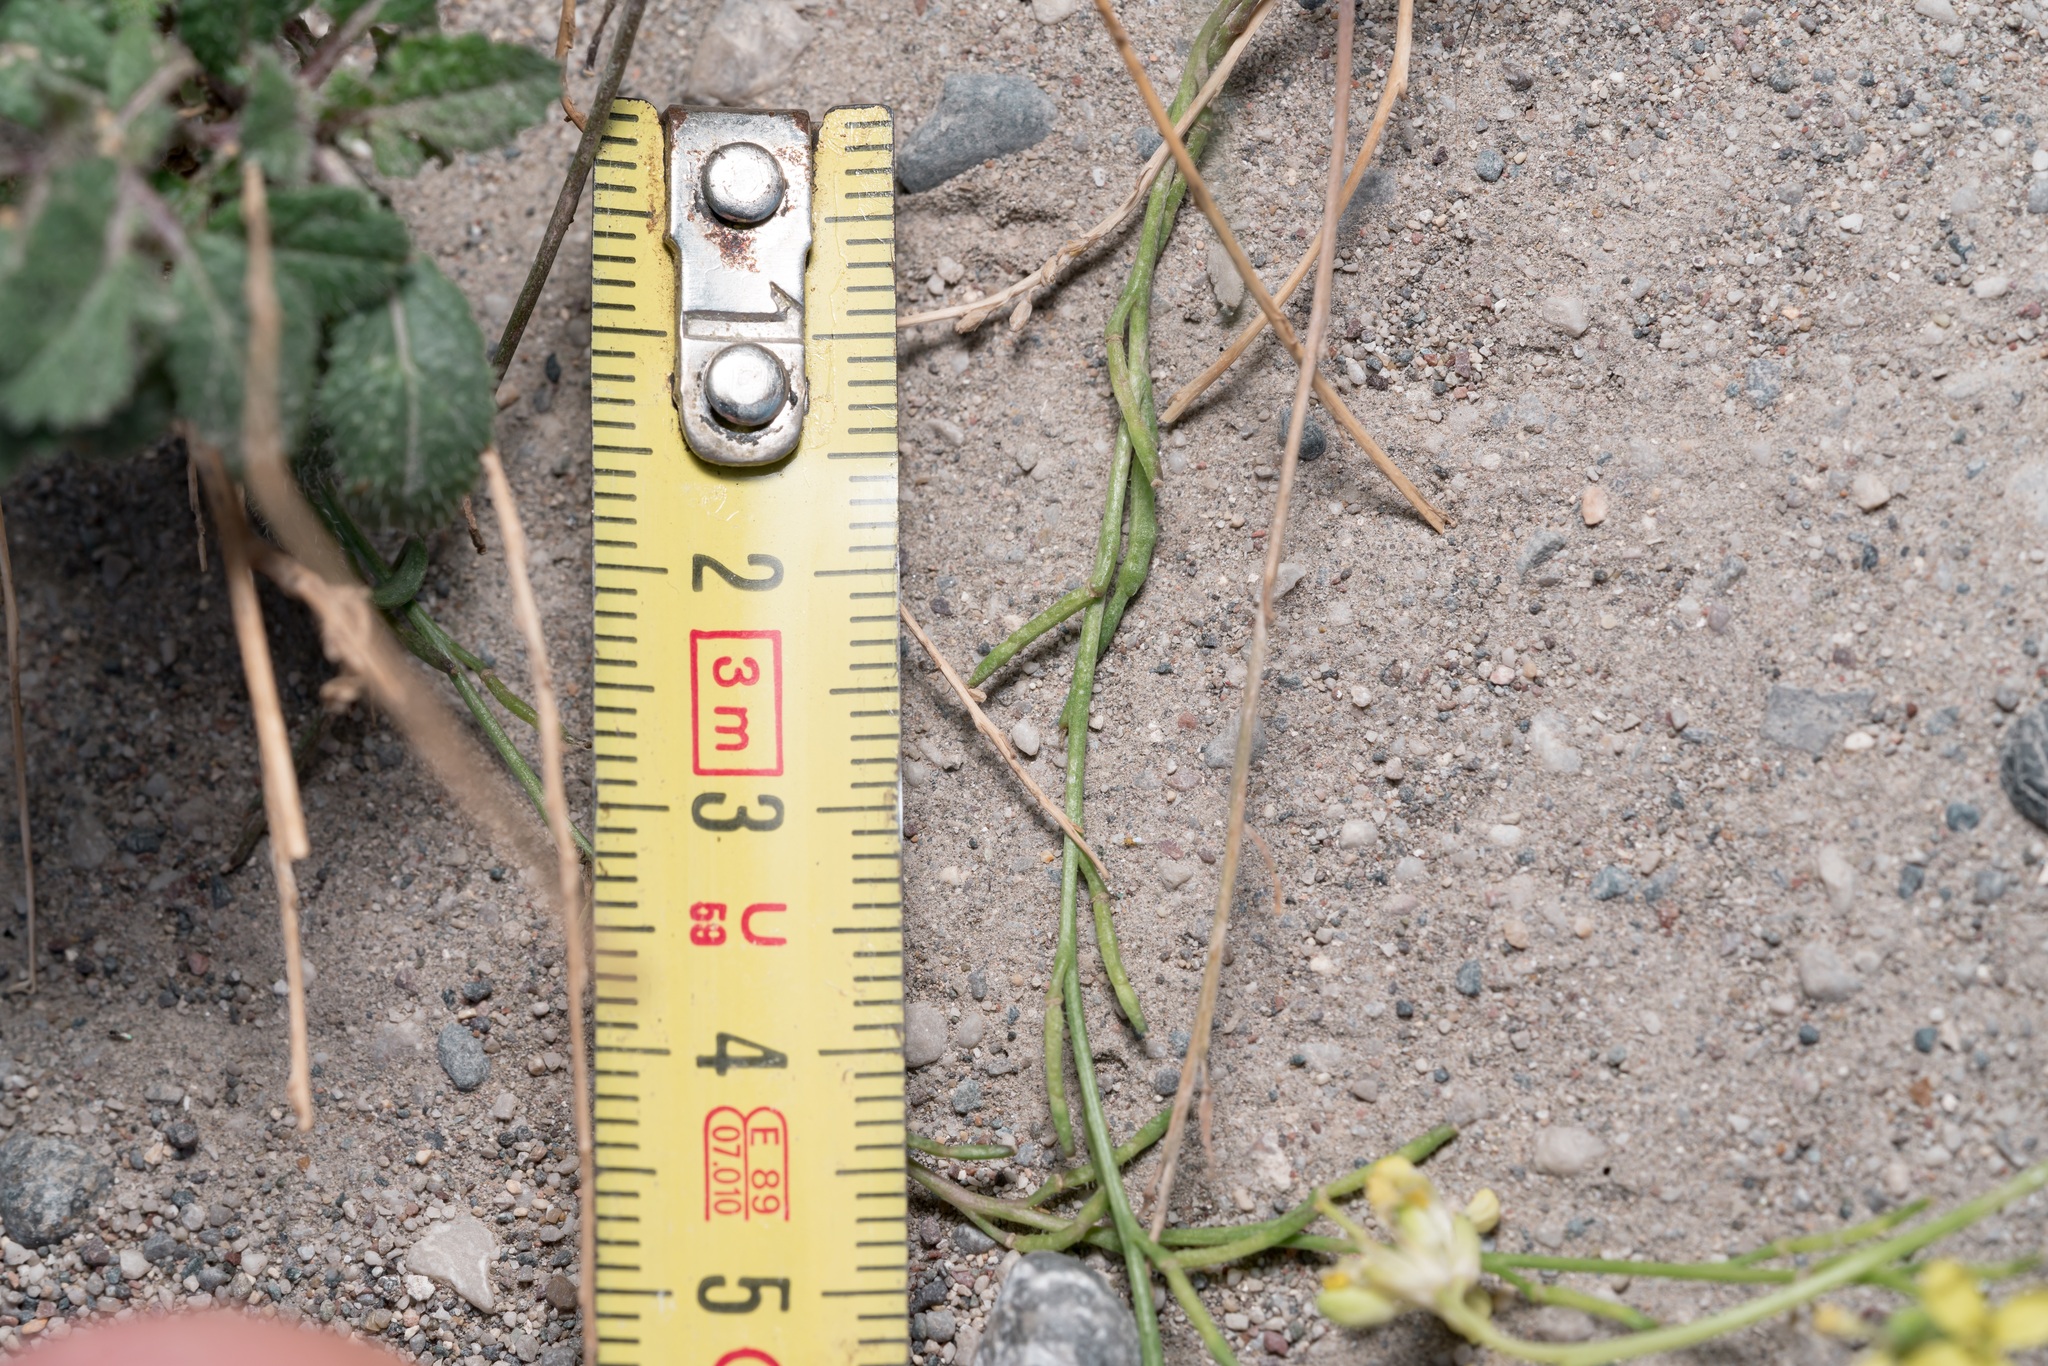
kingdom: Plantae
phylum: Tracheophyta
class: Magnoliopsida
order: Brassicales
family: Brassicaceae
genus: Hirschfeldia
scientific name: Hirschfeldia incana
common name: Hoary mustard
